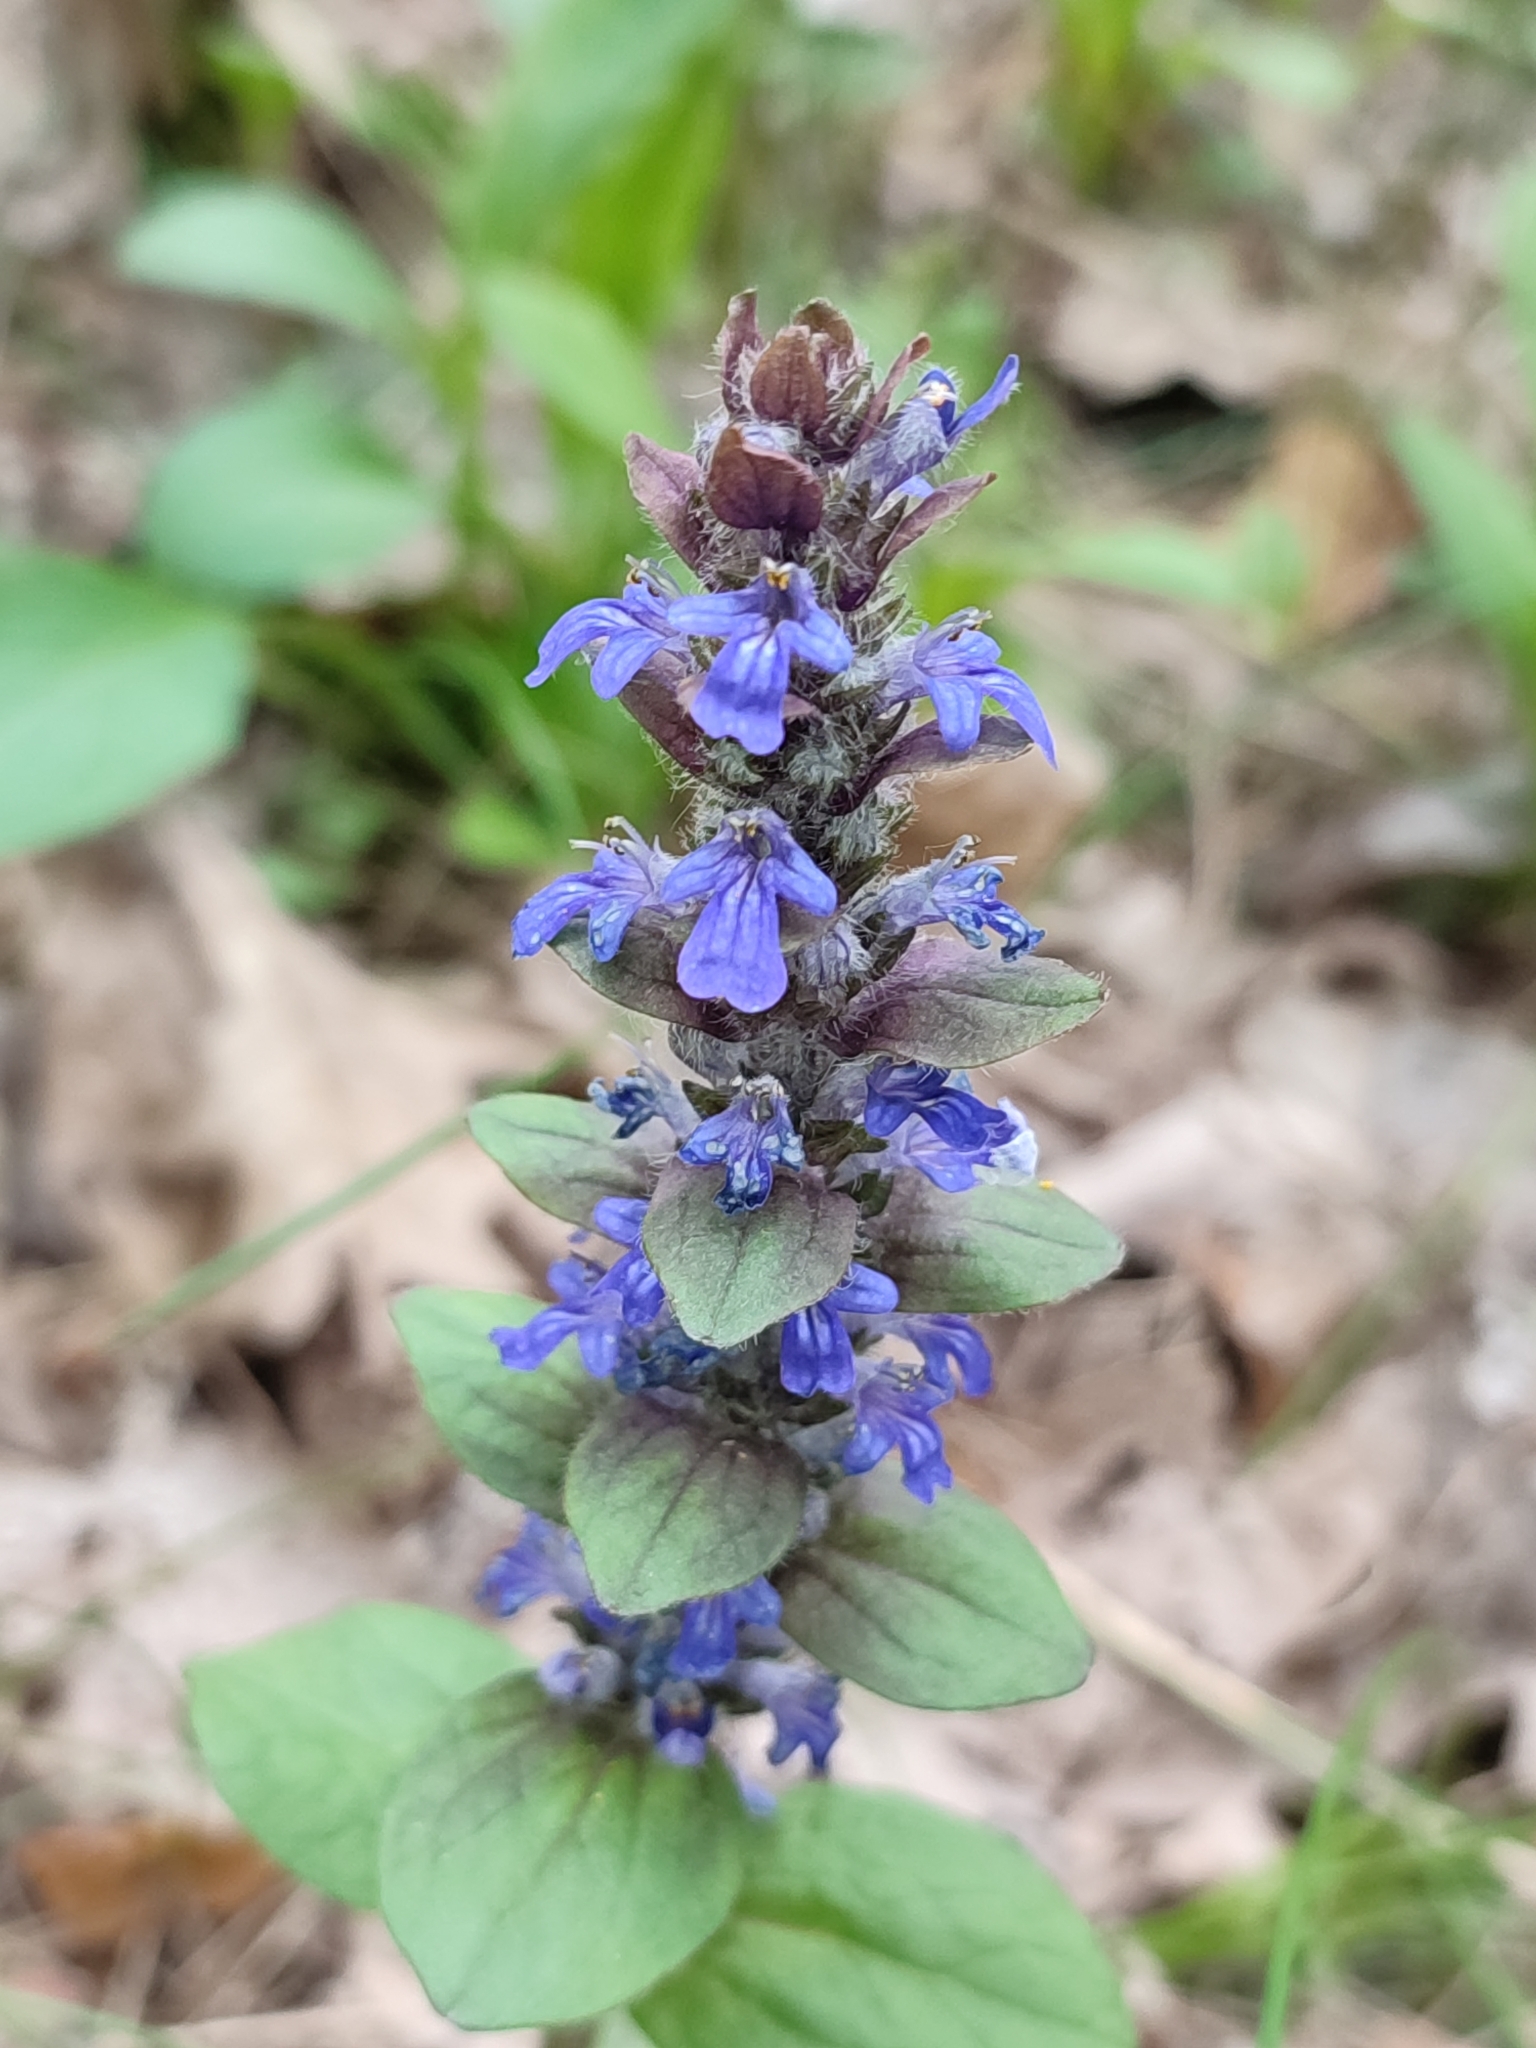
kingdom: Plantae
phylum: Tracheophyta
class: Magnoliopsida
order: Lamiales
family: Lamiaceae
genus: Ajuga
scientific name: Ajuga reptans
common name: Bugle
